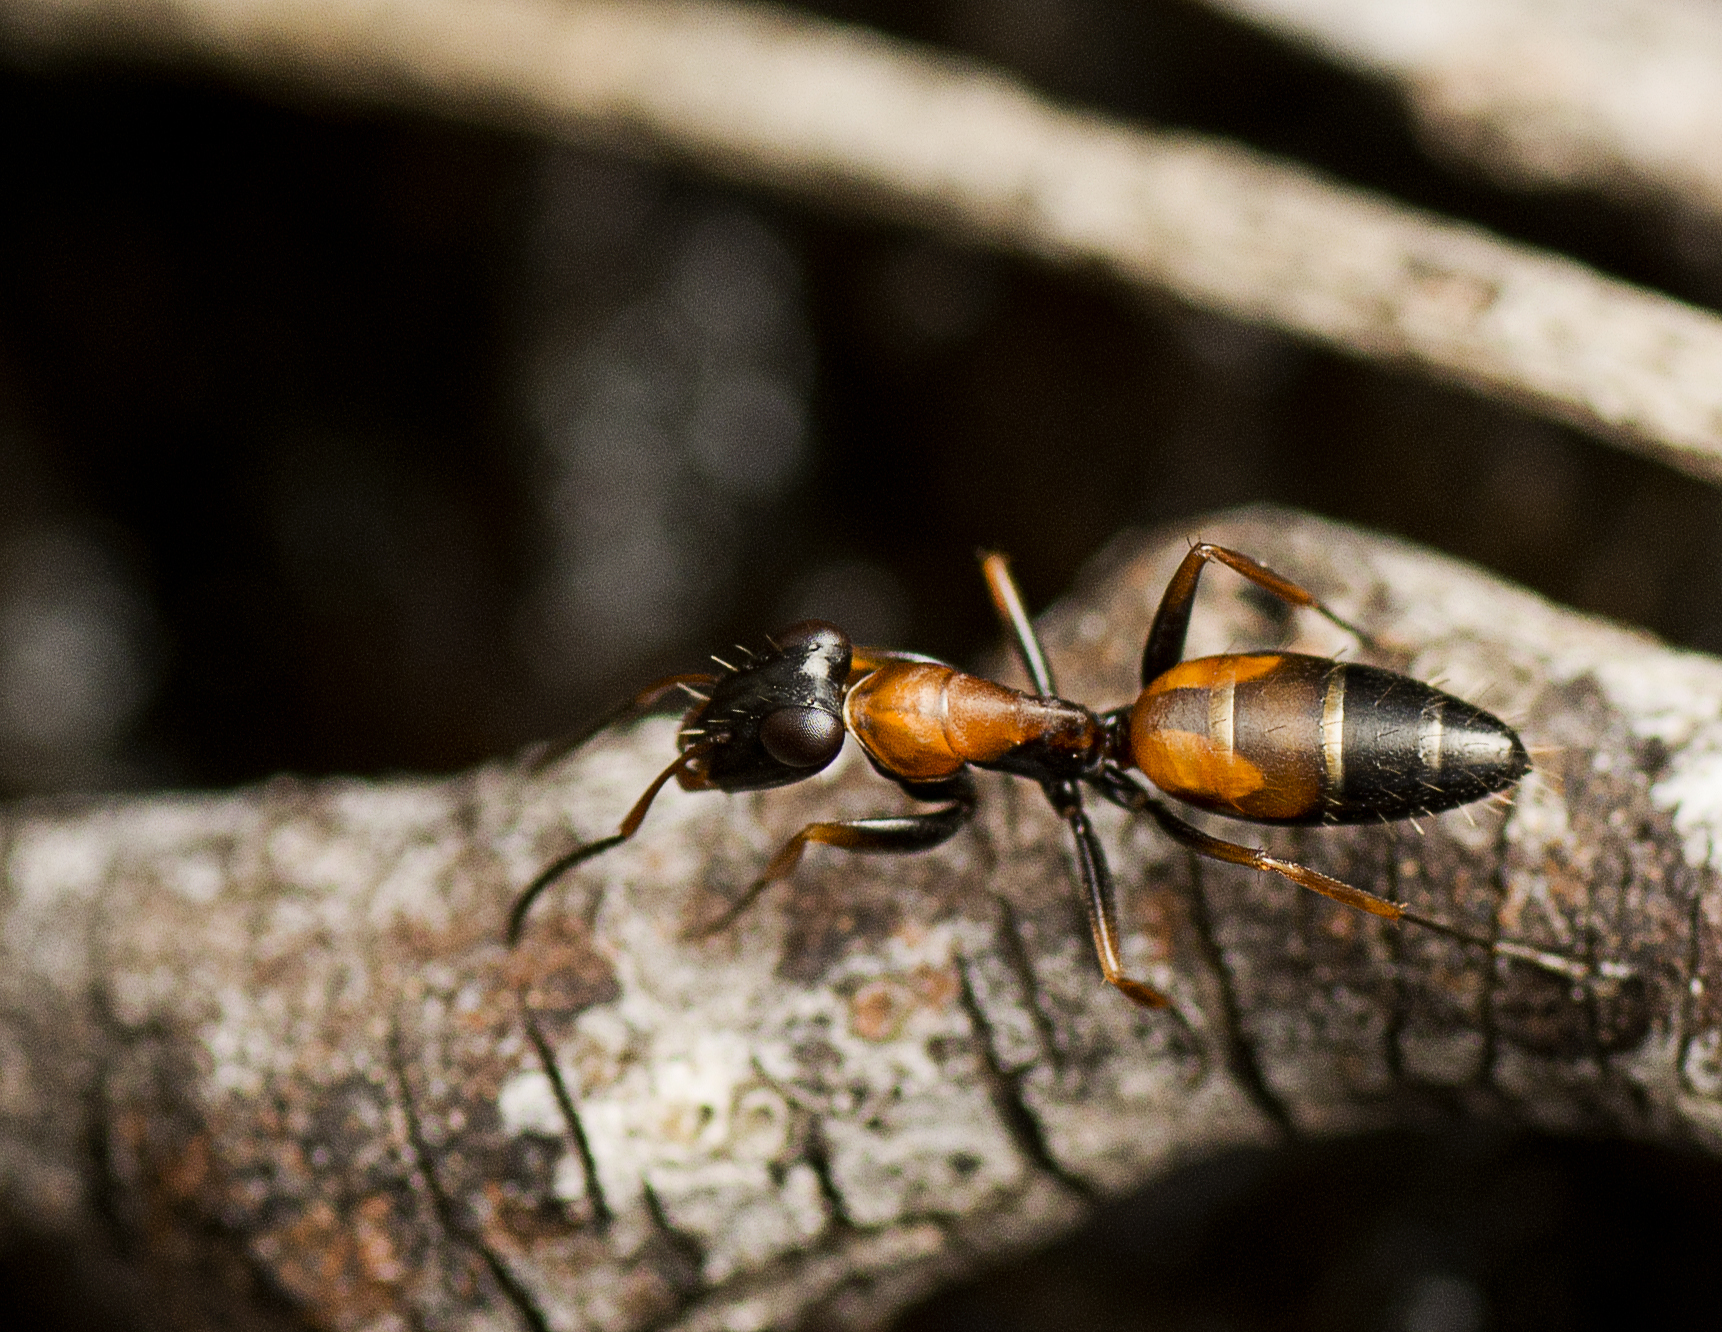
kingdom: Animalia
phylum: Arthropoda
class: Insecta
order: Hymenoptera
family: Formicidae
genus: Opisthopsis
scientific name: Opisthopsis pictus
